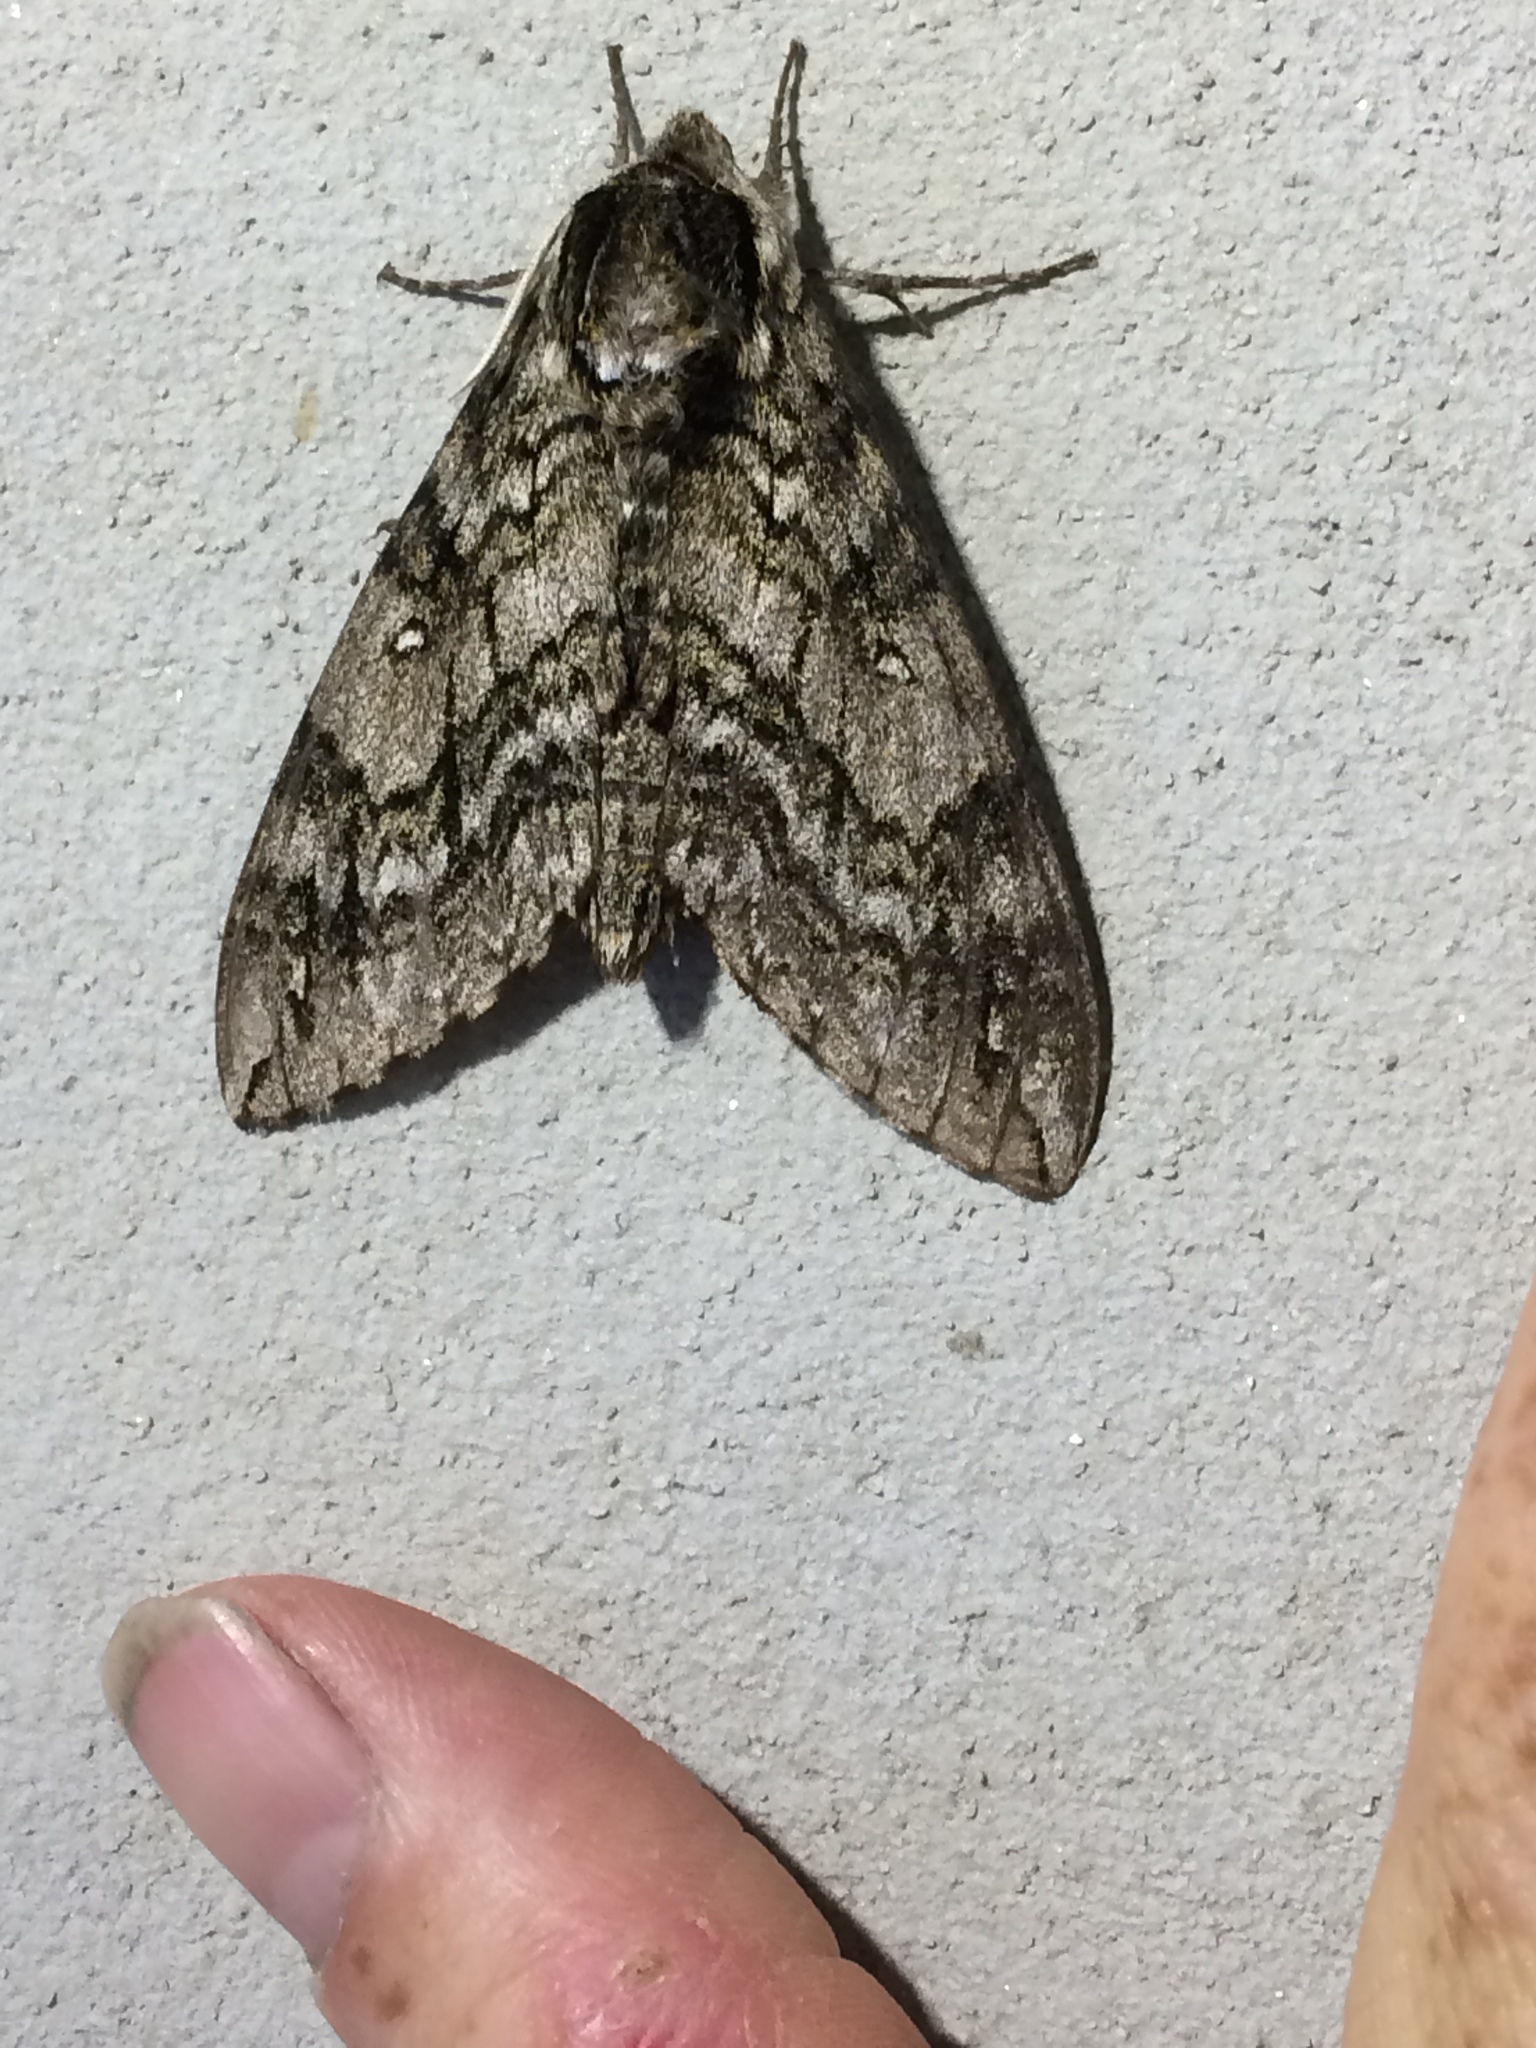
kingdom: Animalia
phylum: Arthropoda
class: Insecta
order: Lepidoptera
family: Sphingidae
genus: Ceratomia
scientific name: Ceratomia undulosa
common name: Waved sphinx
